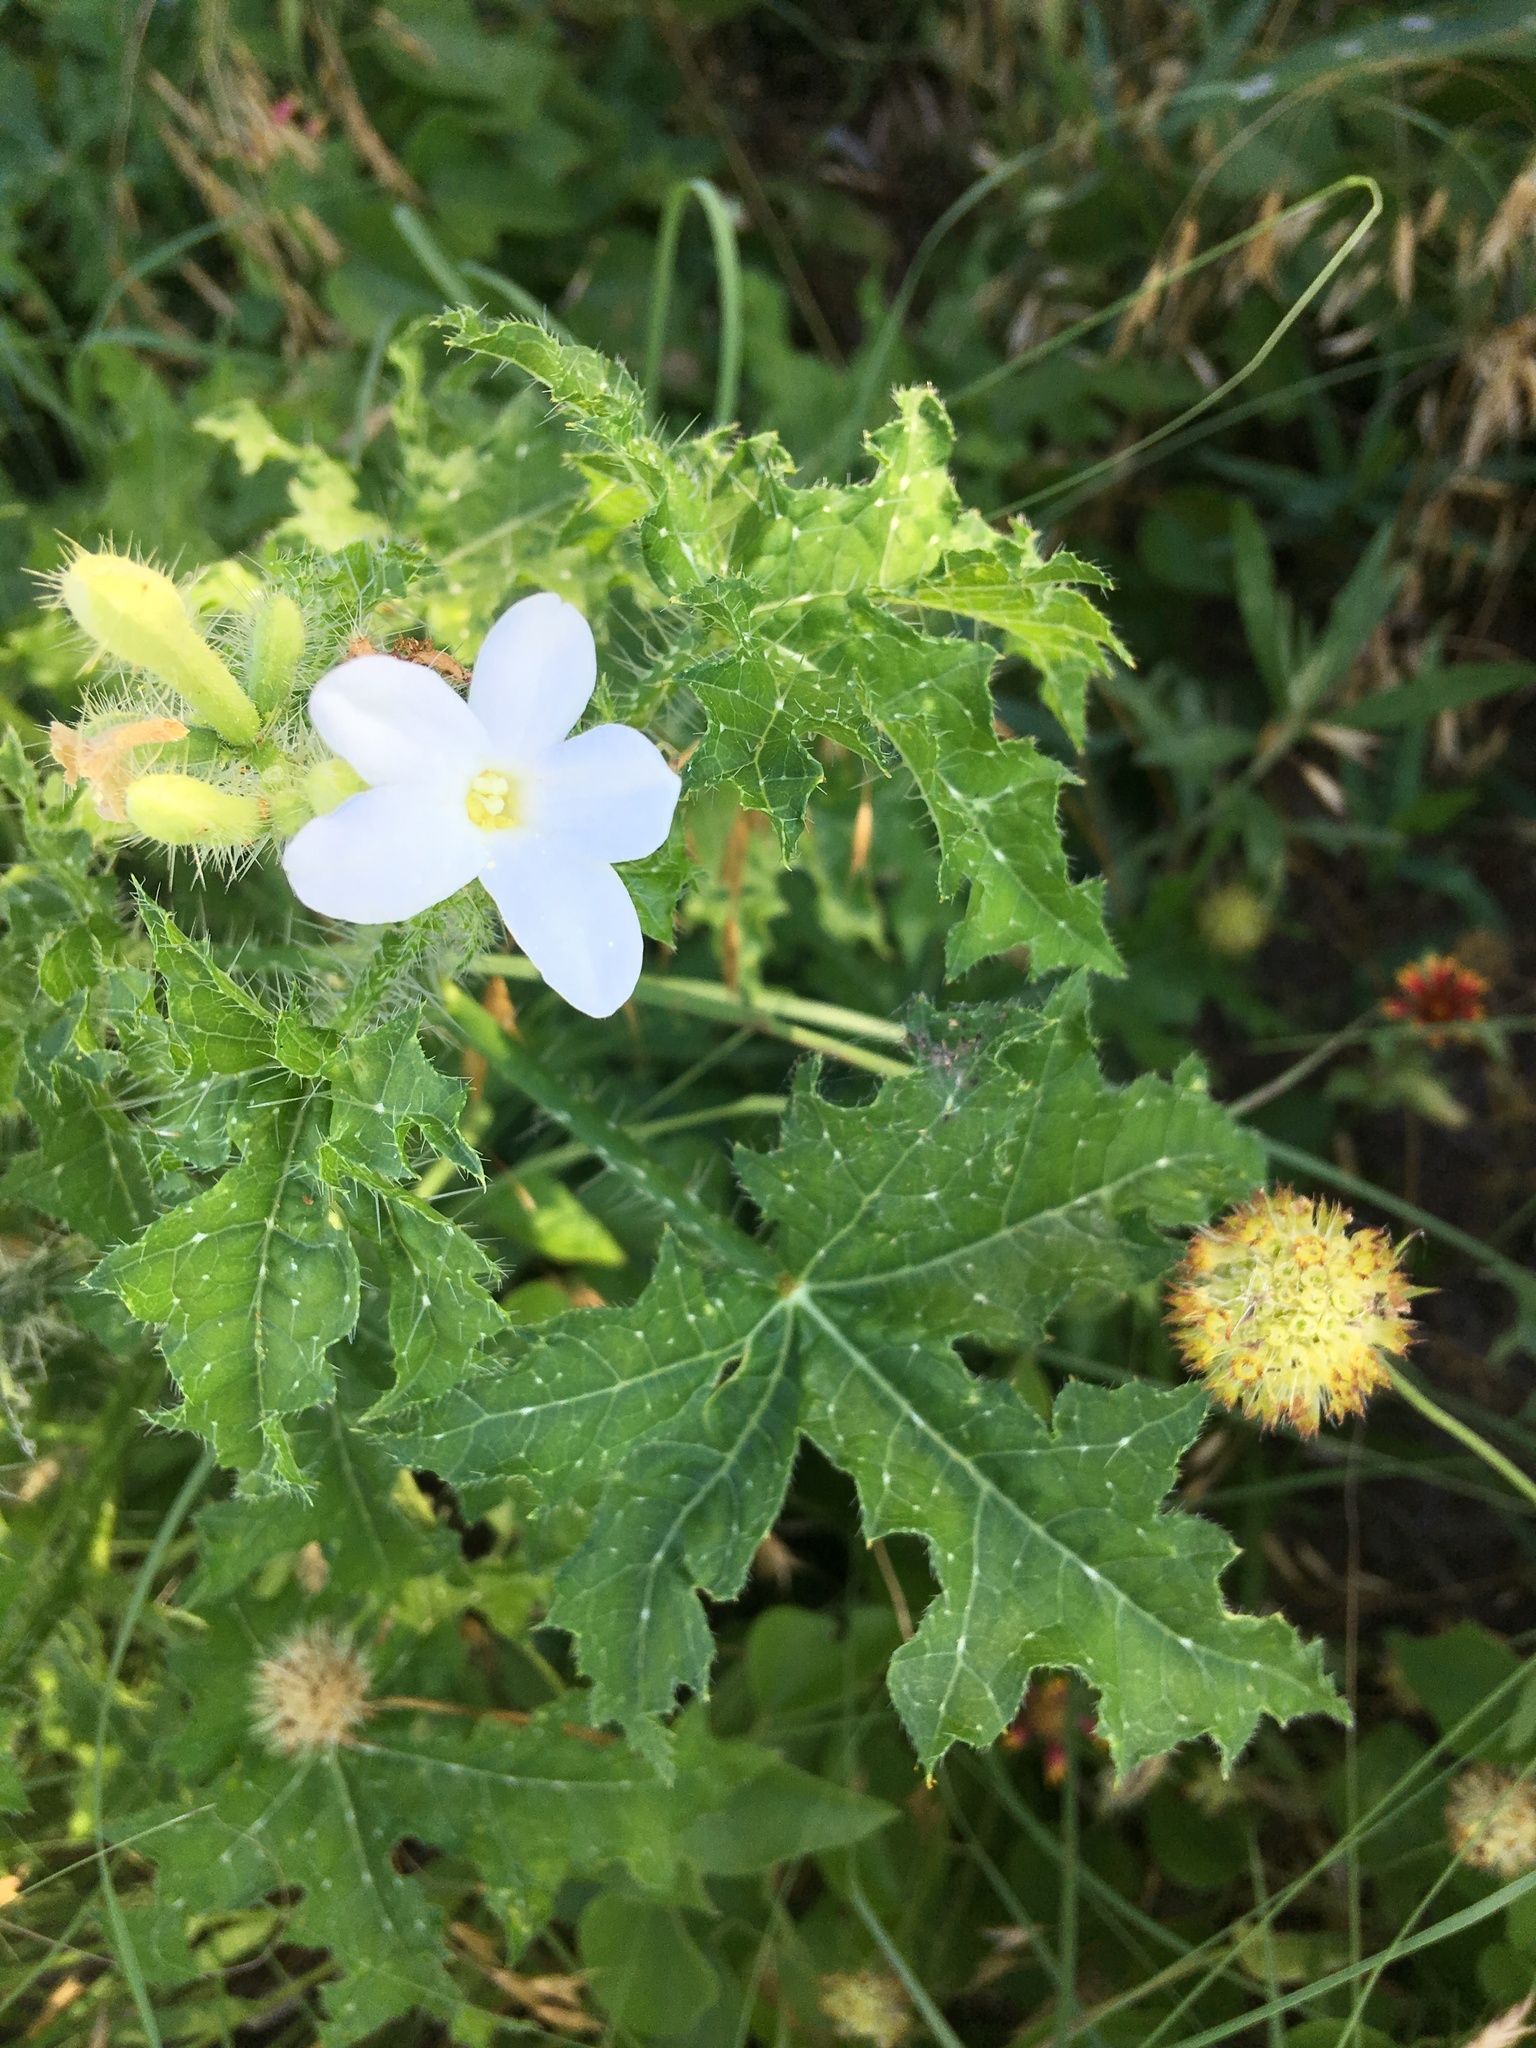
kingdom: Plantae
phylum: Tracheophyta
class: Magnoliopsida
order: Malpighiales
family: Euphorbiaceae
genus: Cnidoscolus
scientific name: Cnidoscolus texanus
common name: Texas bull-nettle
